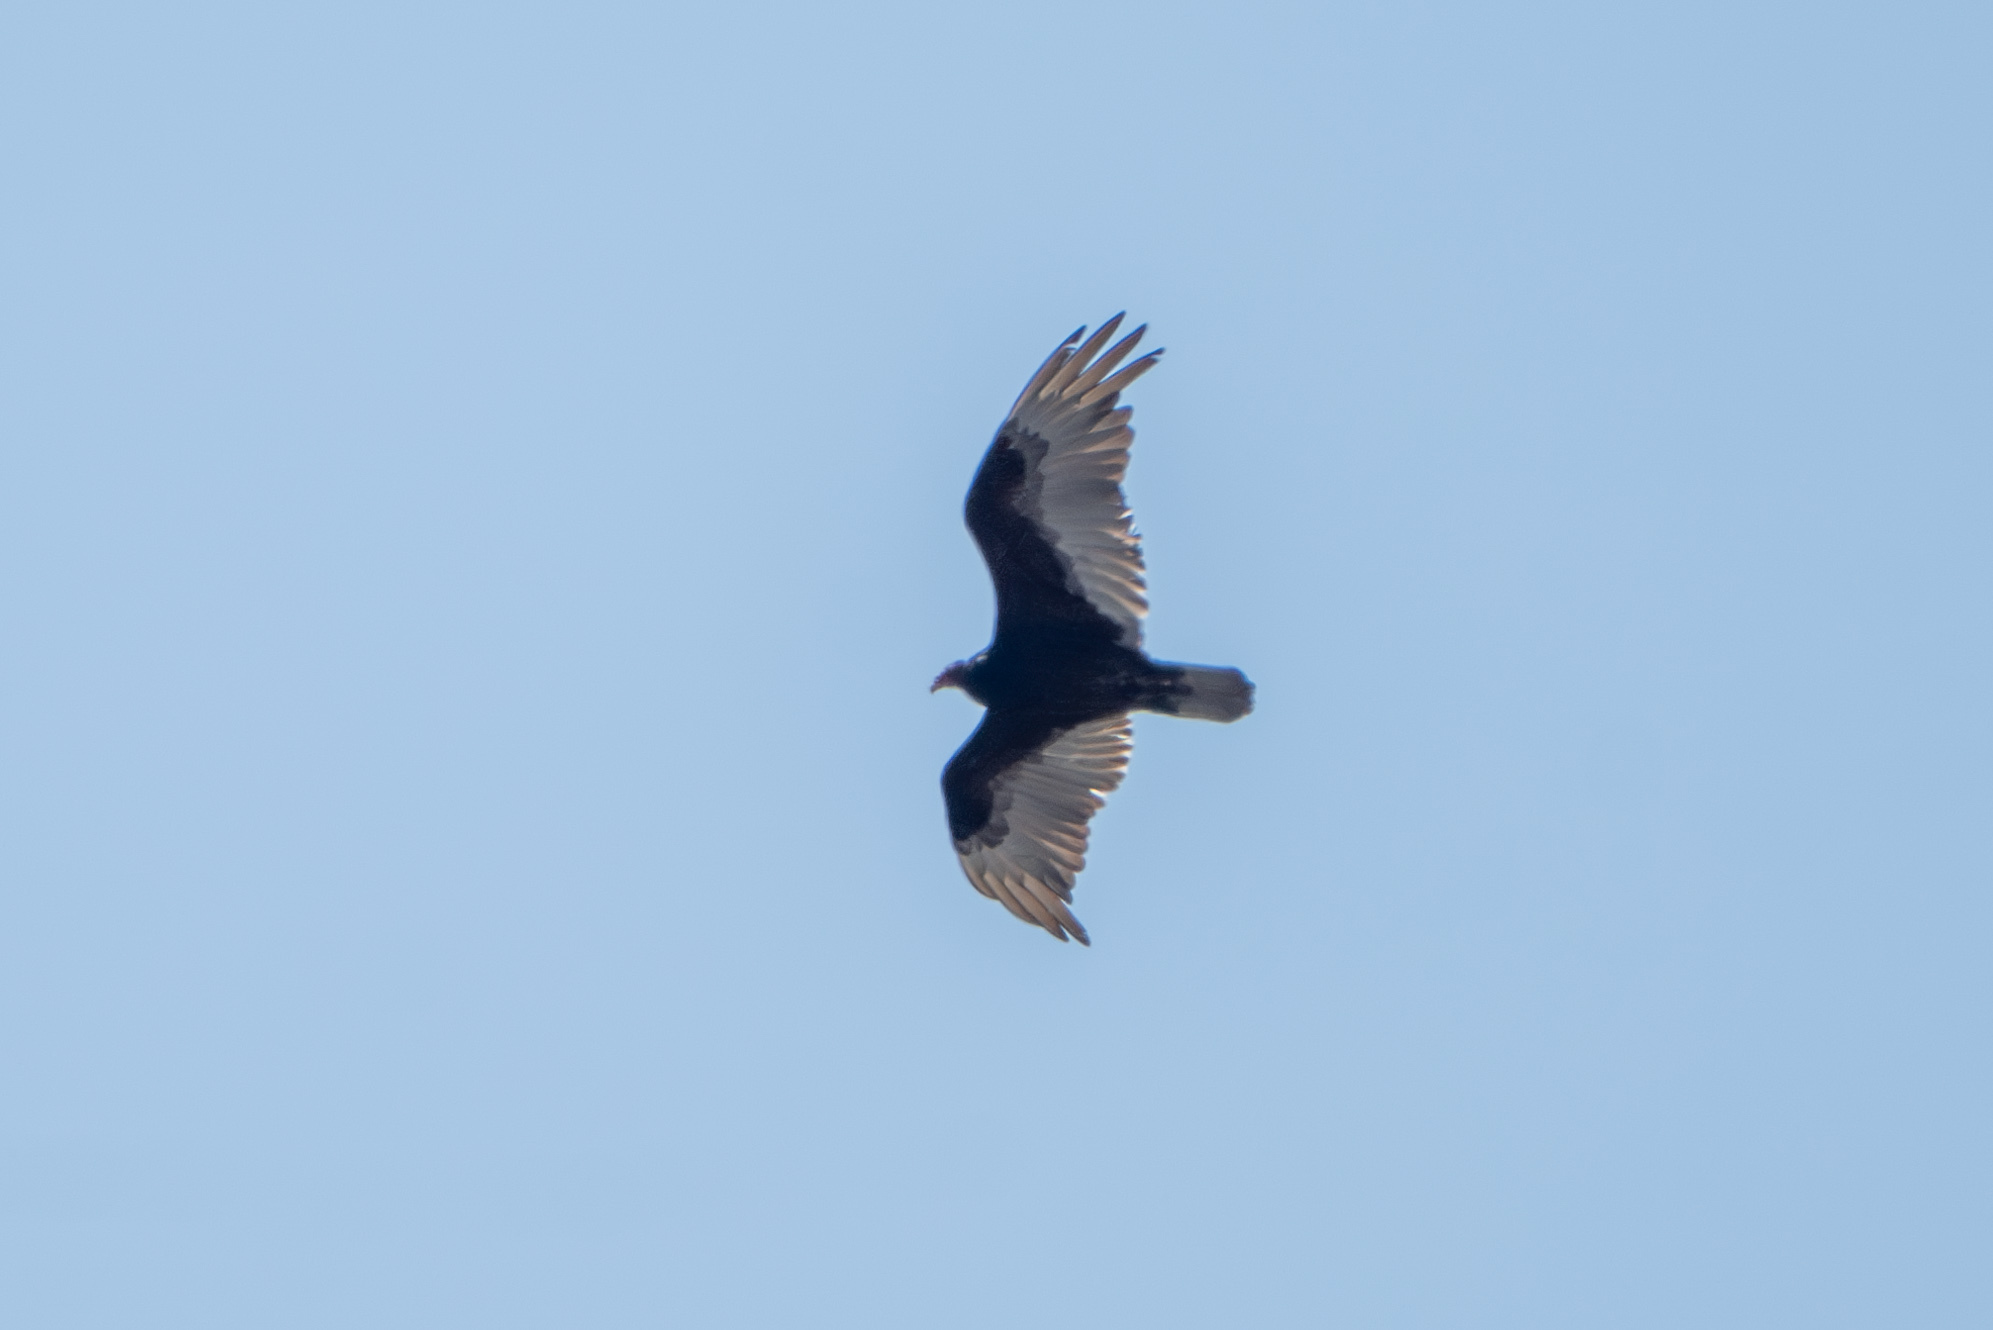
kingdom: Animalia
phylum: Chordata
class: Aves
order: Accipitriformes
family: Cathartidae
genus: Cathartes
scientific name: Cathartes aura
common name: Turkey vulture
